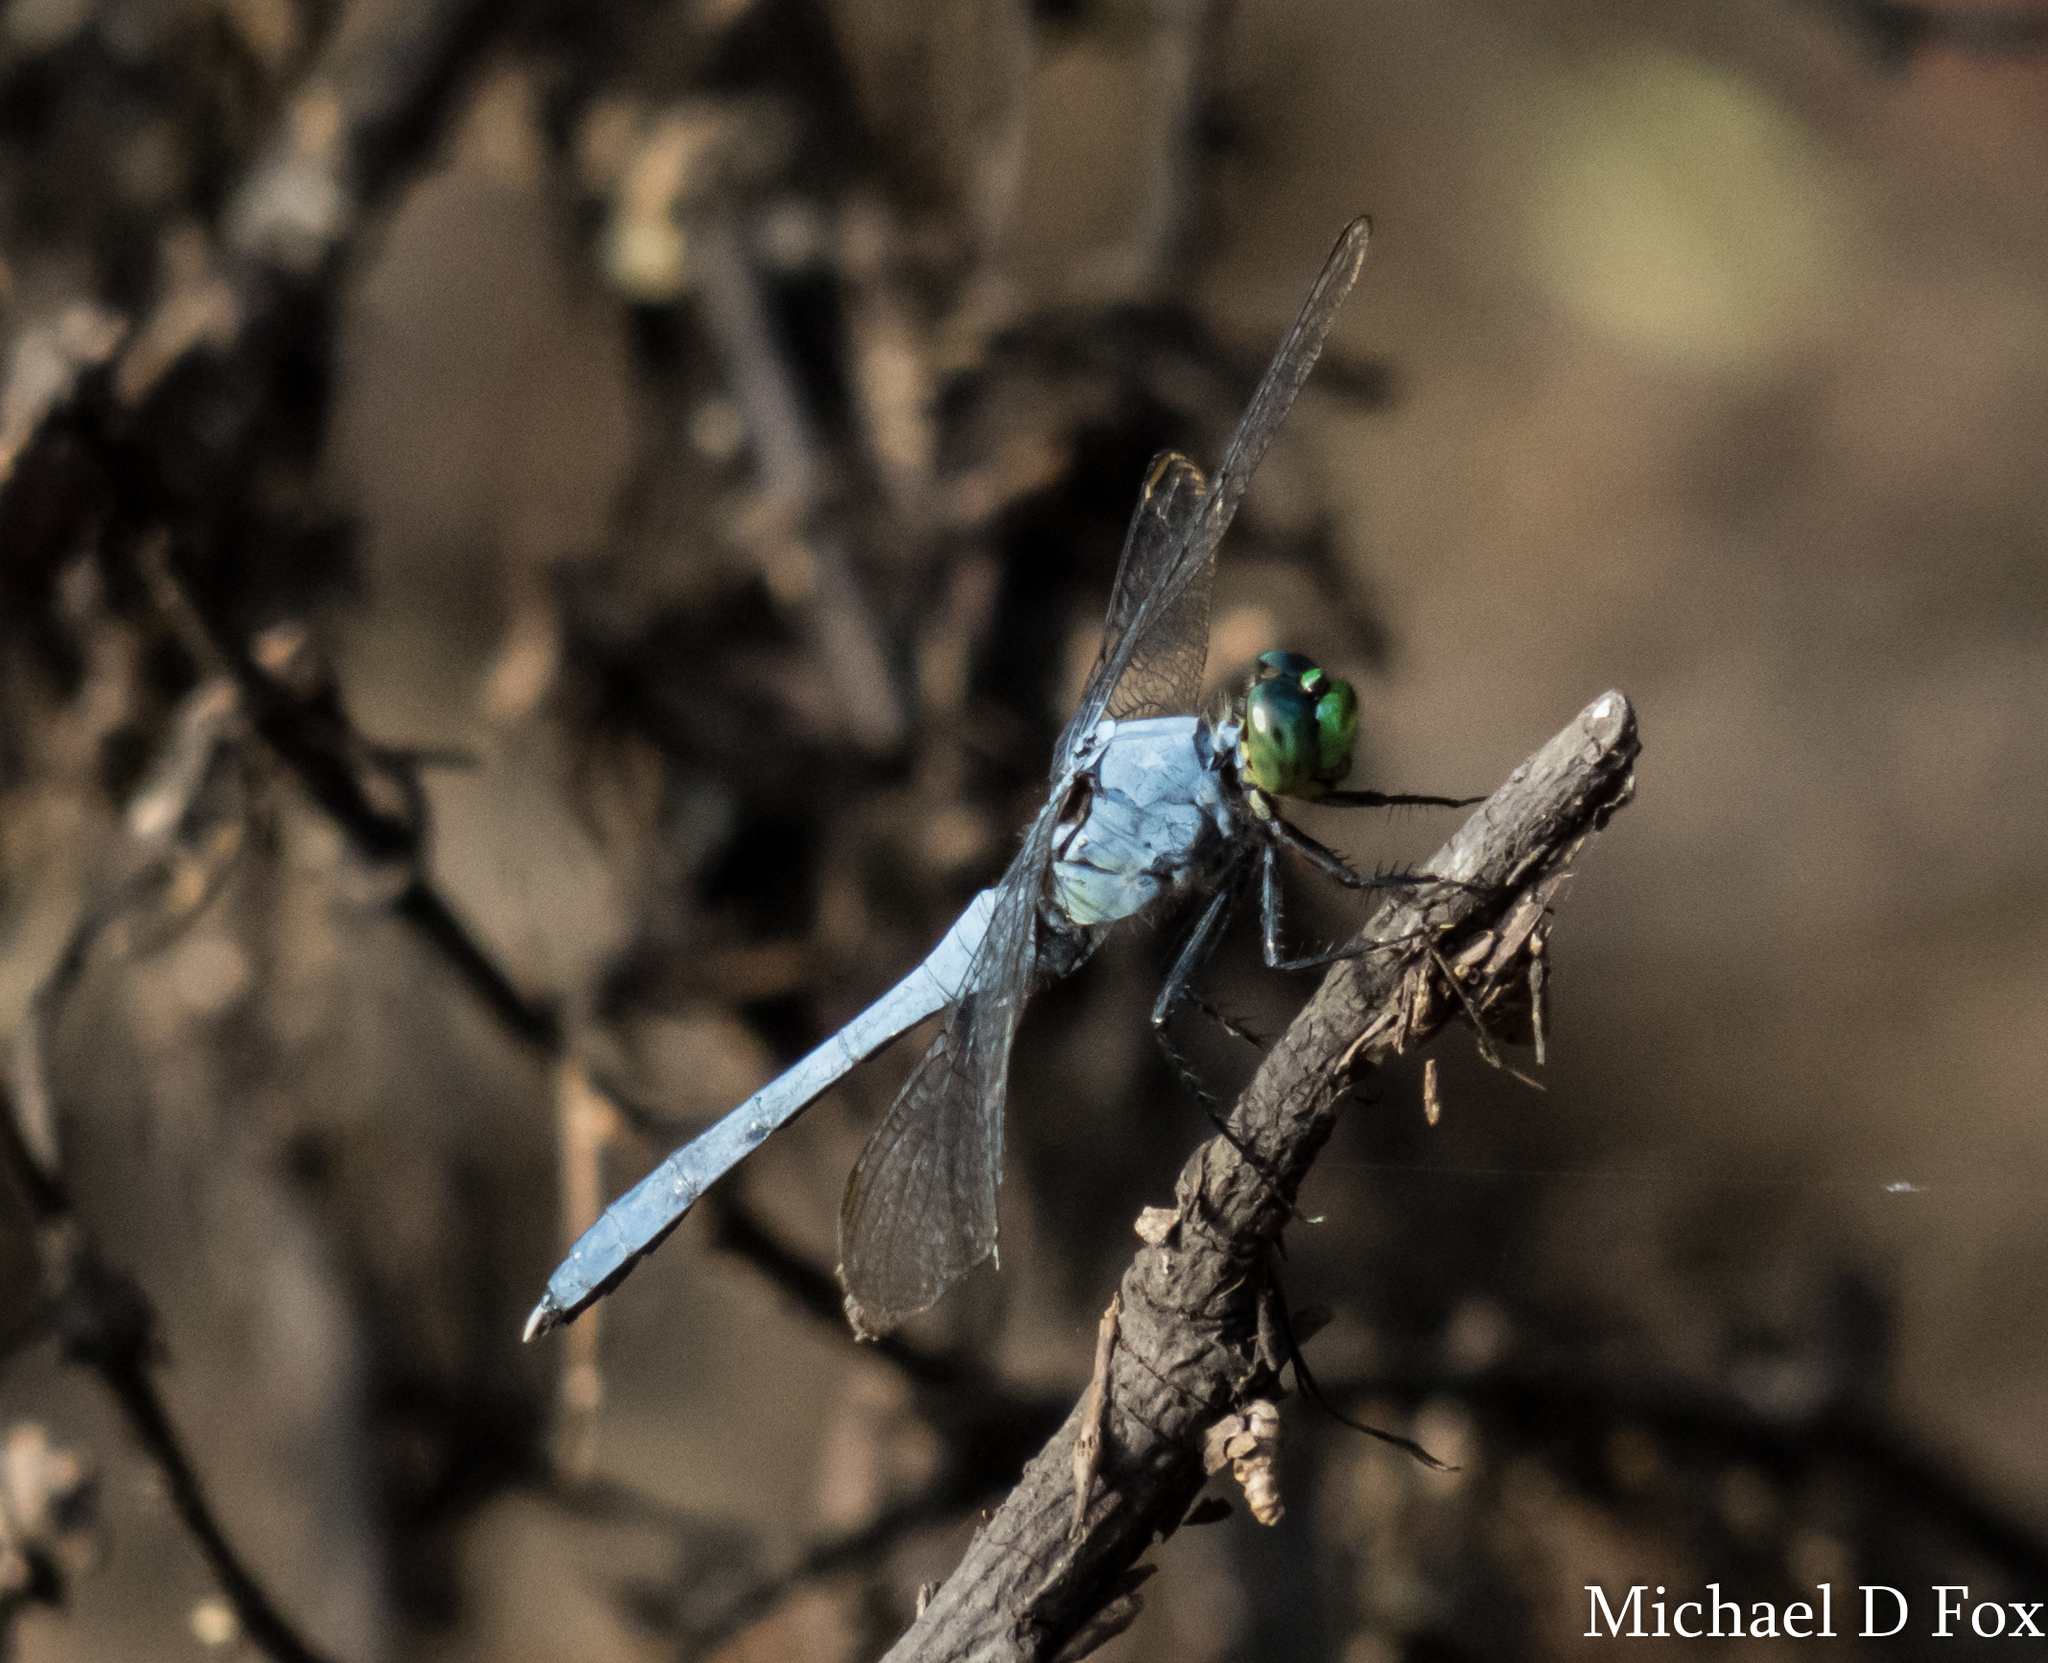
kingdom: Animalia
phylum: Arthropoda
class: Insecta
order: Odonata
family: Libellulidae
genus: Erythemis
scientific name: Erythemis simplicicollis
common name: Eastern pondhawk
